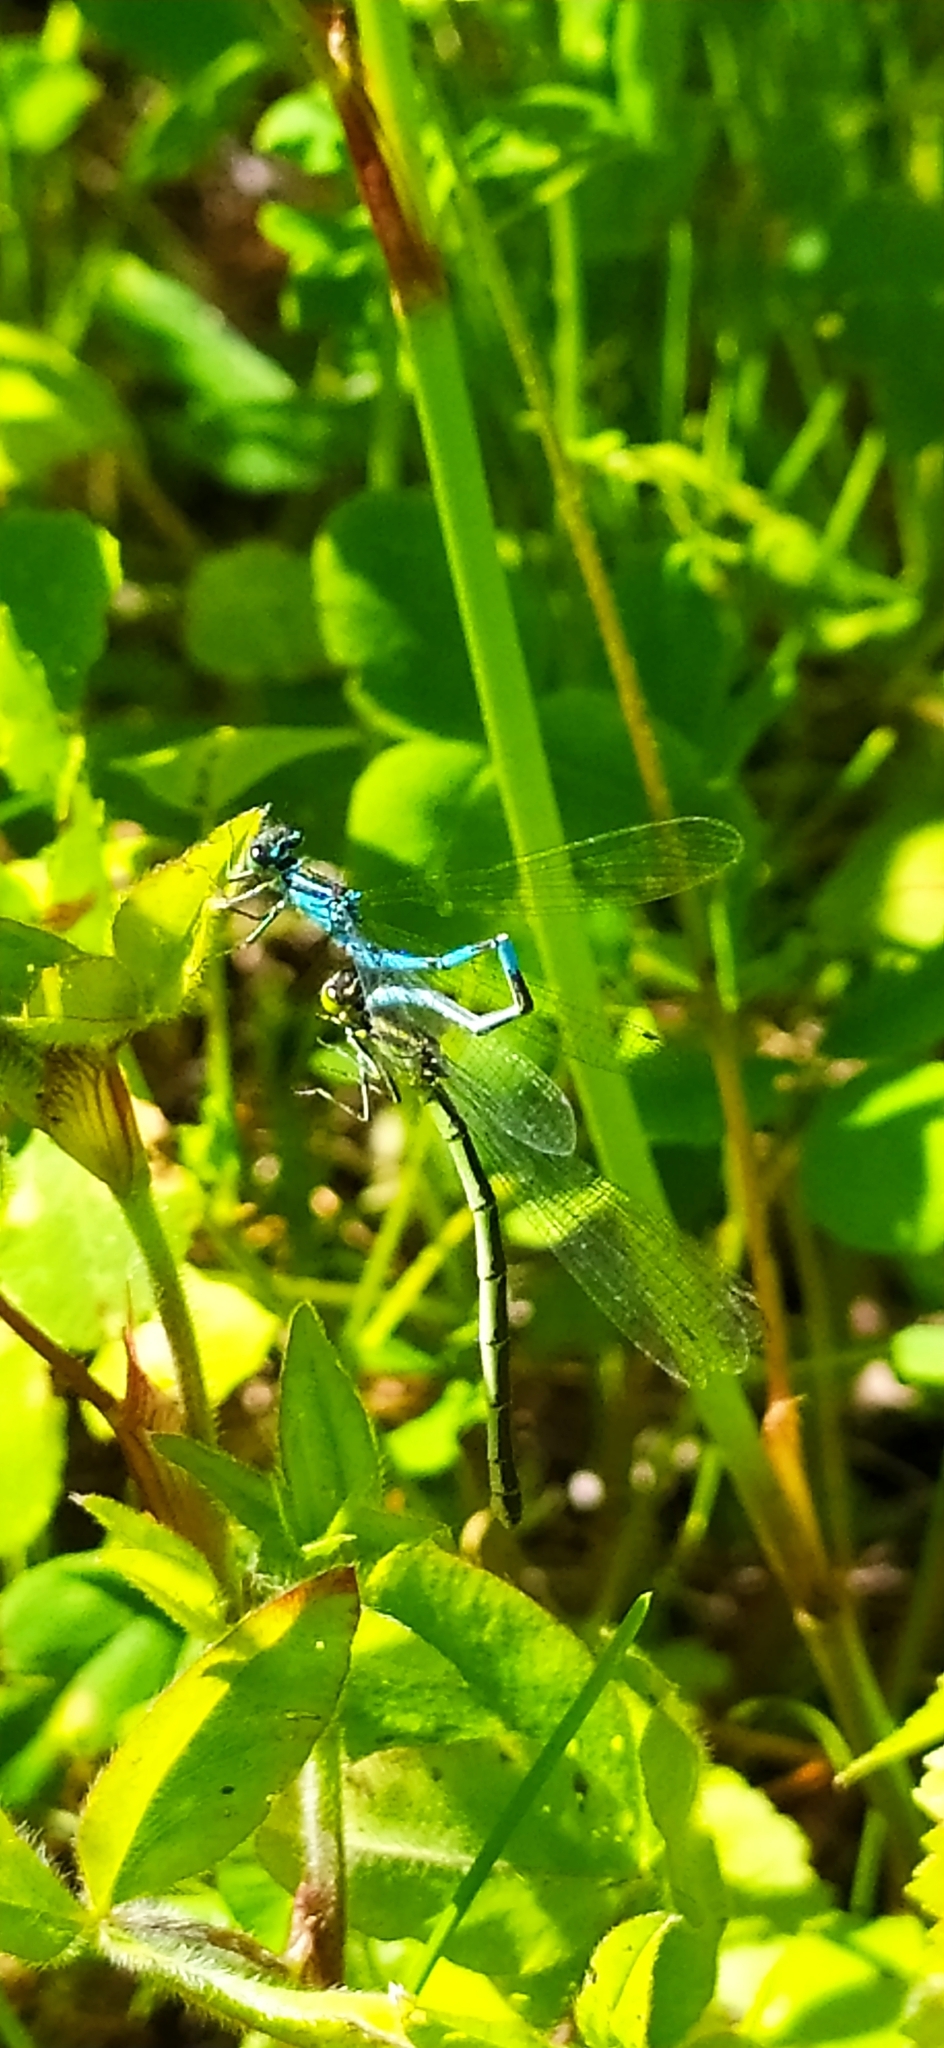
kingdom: Animalia
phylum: Arthropoda
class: Insecta
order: Odonata
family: Coenagrionidae
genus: Coenagrion
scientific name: Coenagrion hastulatum
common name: Spearhead bluet
